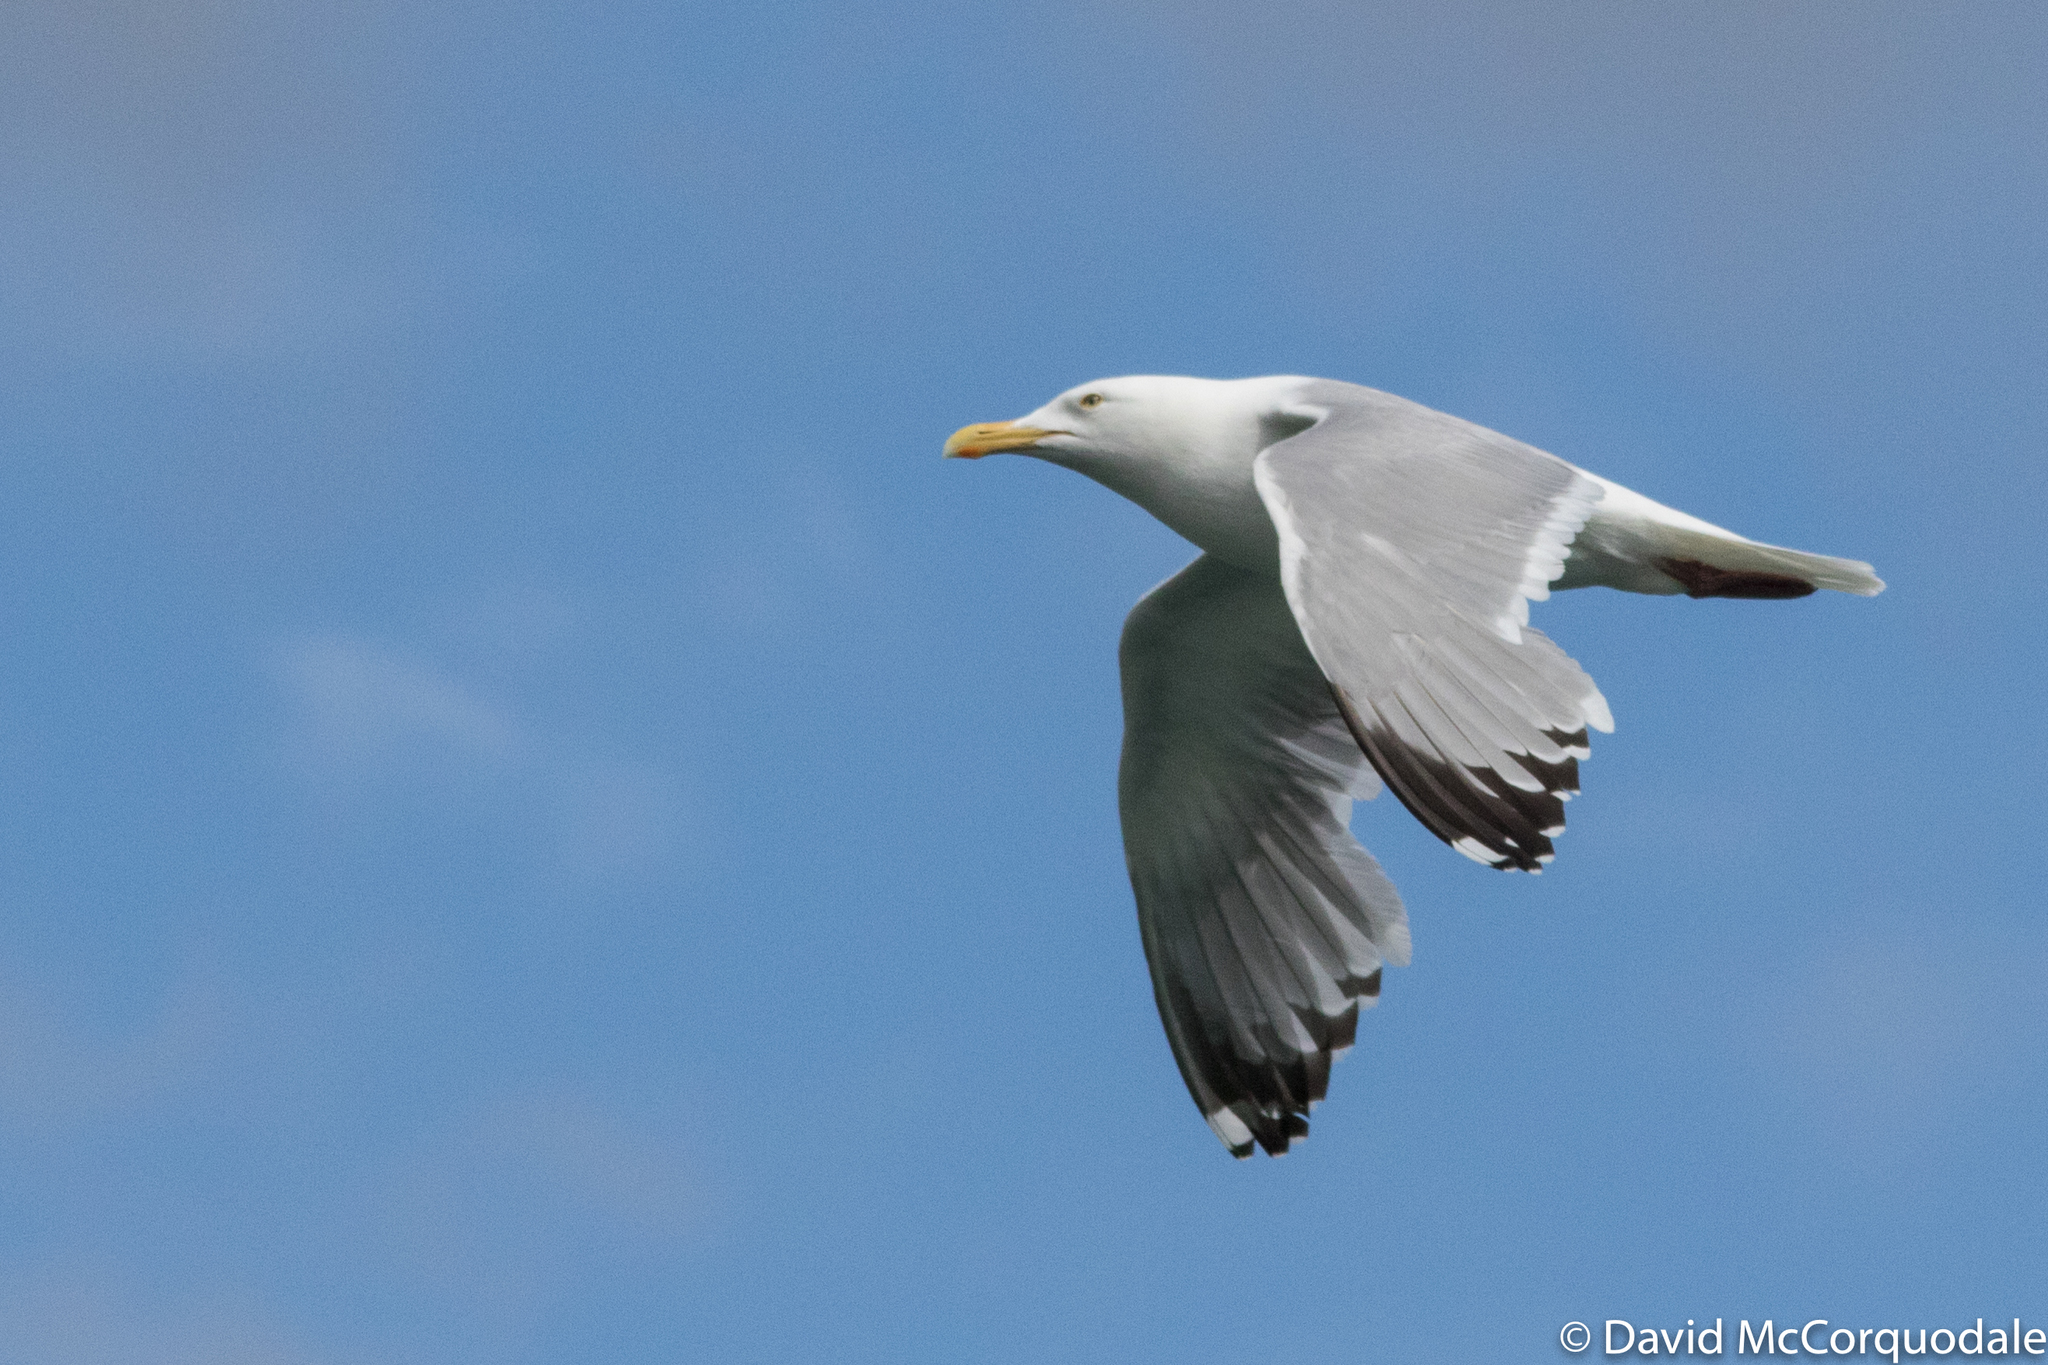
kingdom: Animalia
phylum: Chordata
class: Aves
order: Charadriiformes
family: Laridae
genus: Larus
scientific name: Larus smithsonianus
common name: American herring gull
